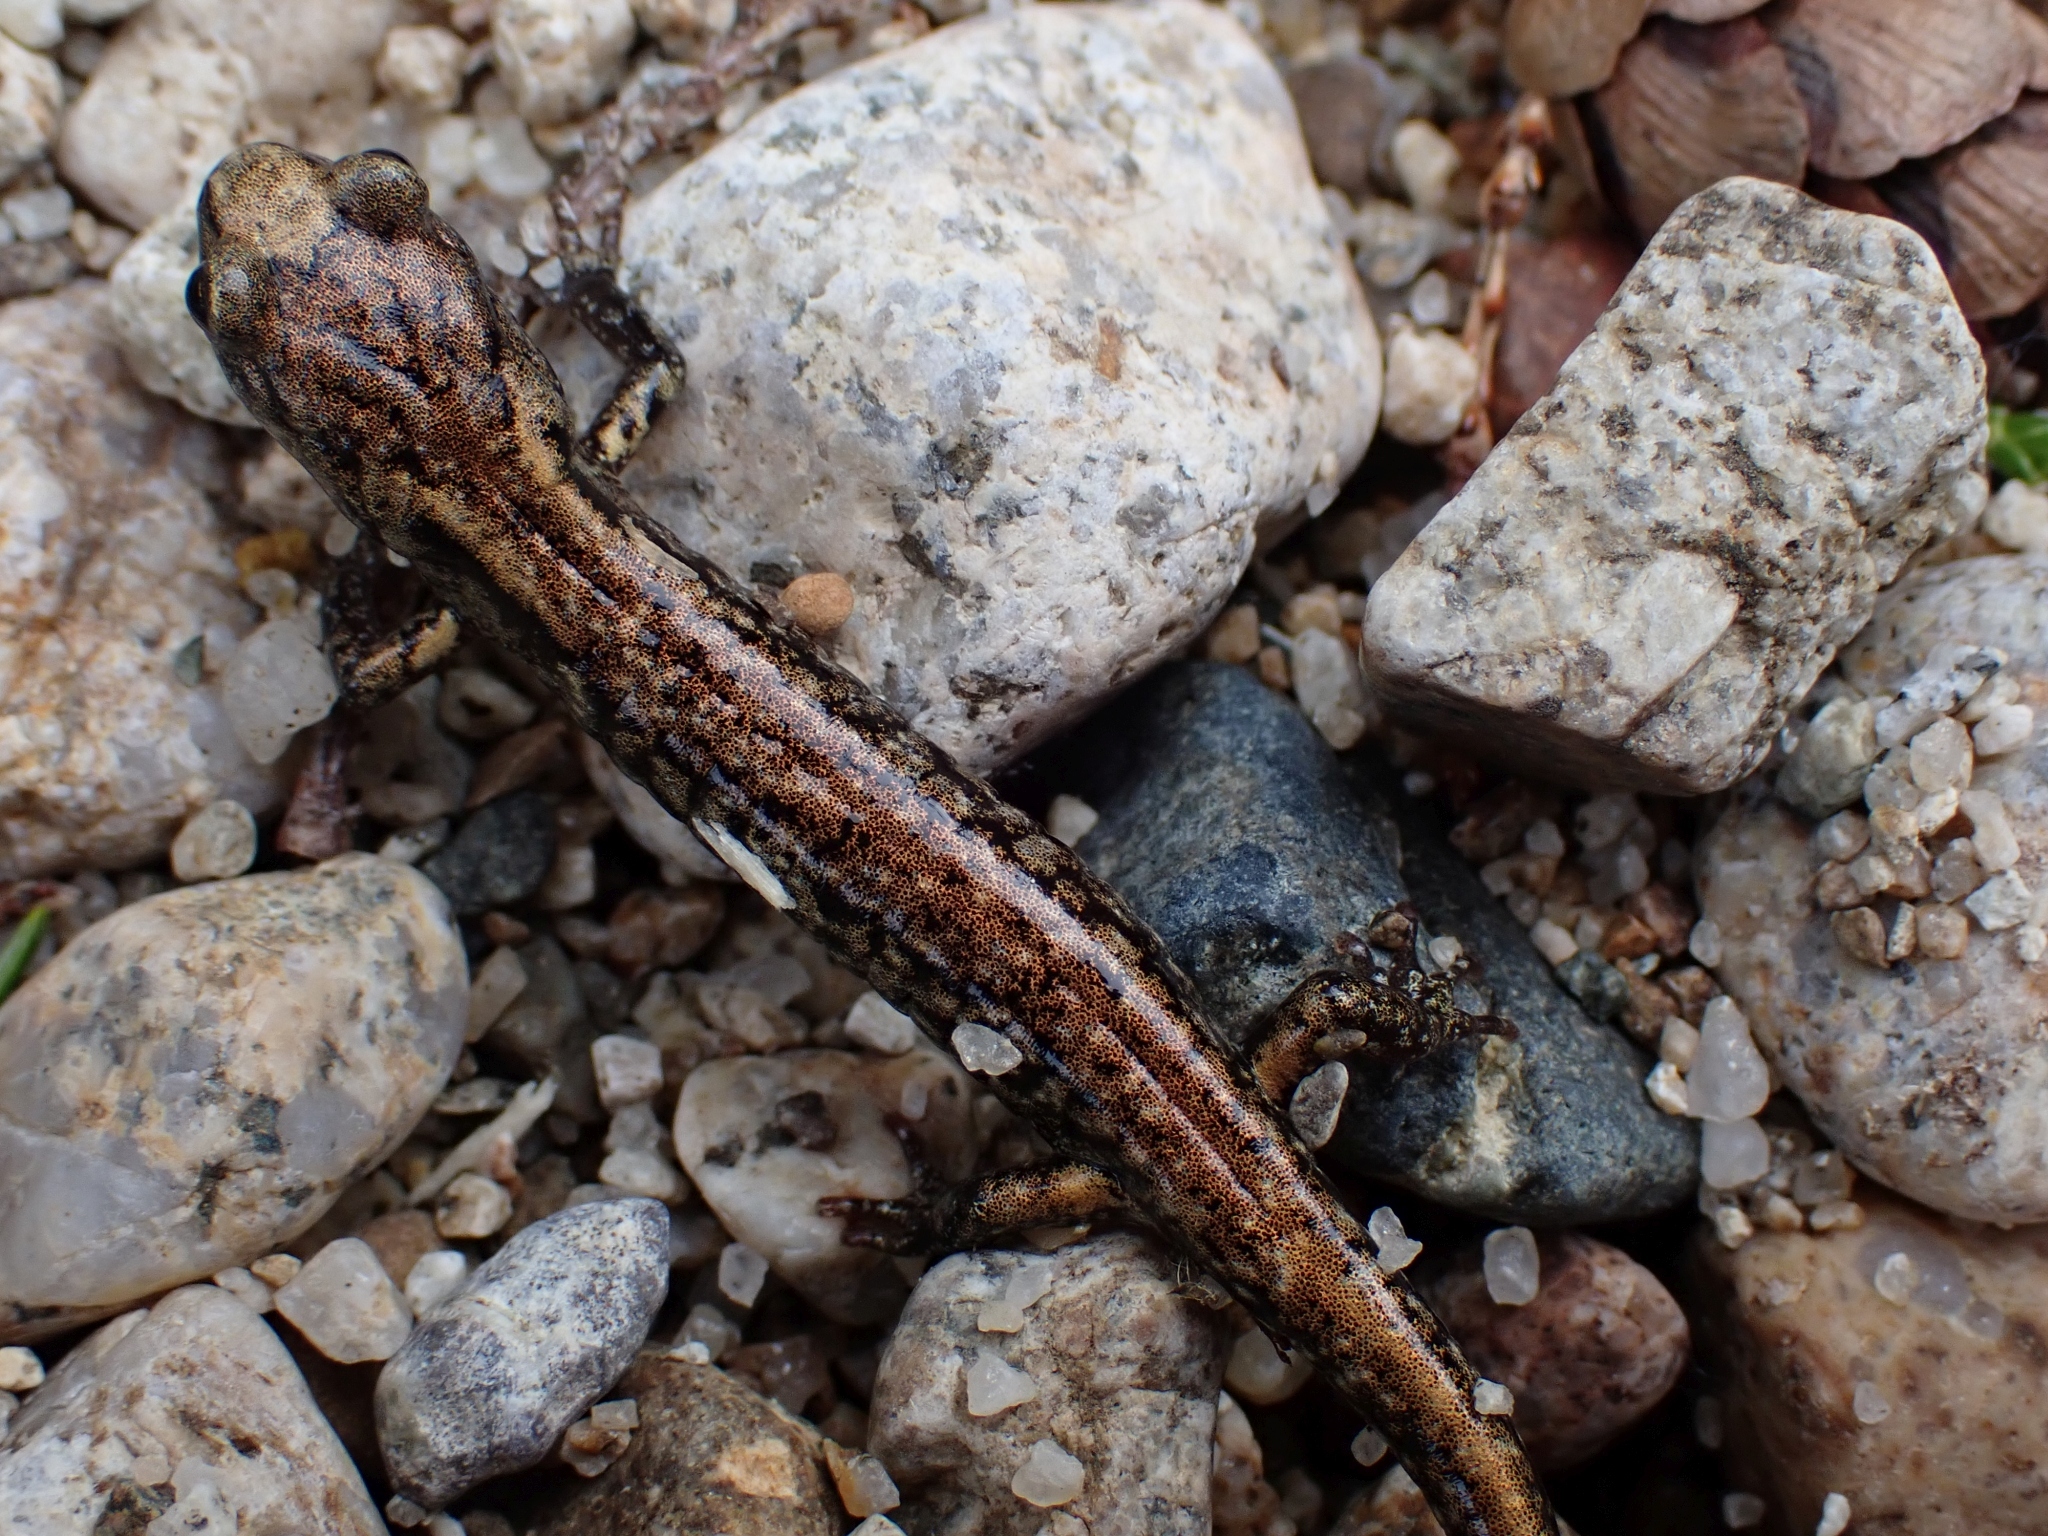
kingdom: Animalia
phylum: Chordata
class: Amphibia
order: Caudata
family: Plethodontidae
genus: Aneides
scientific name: Aneides vagrans
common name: Wandering salamander
